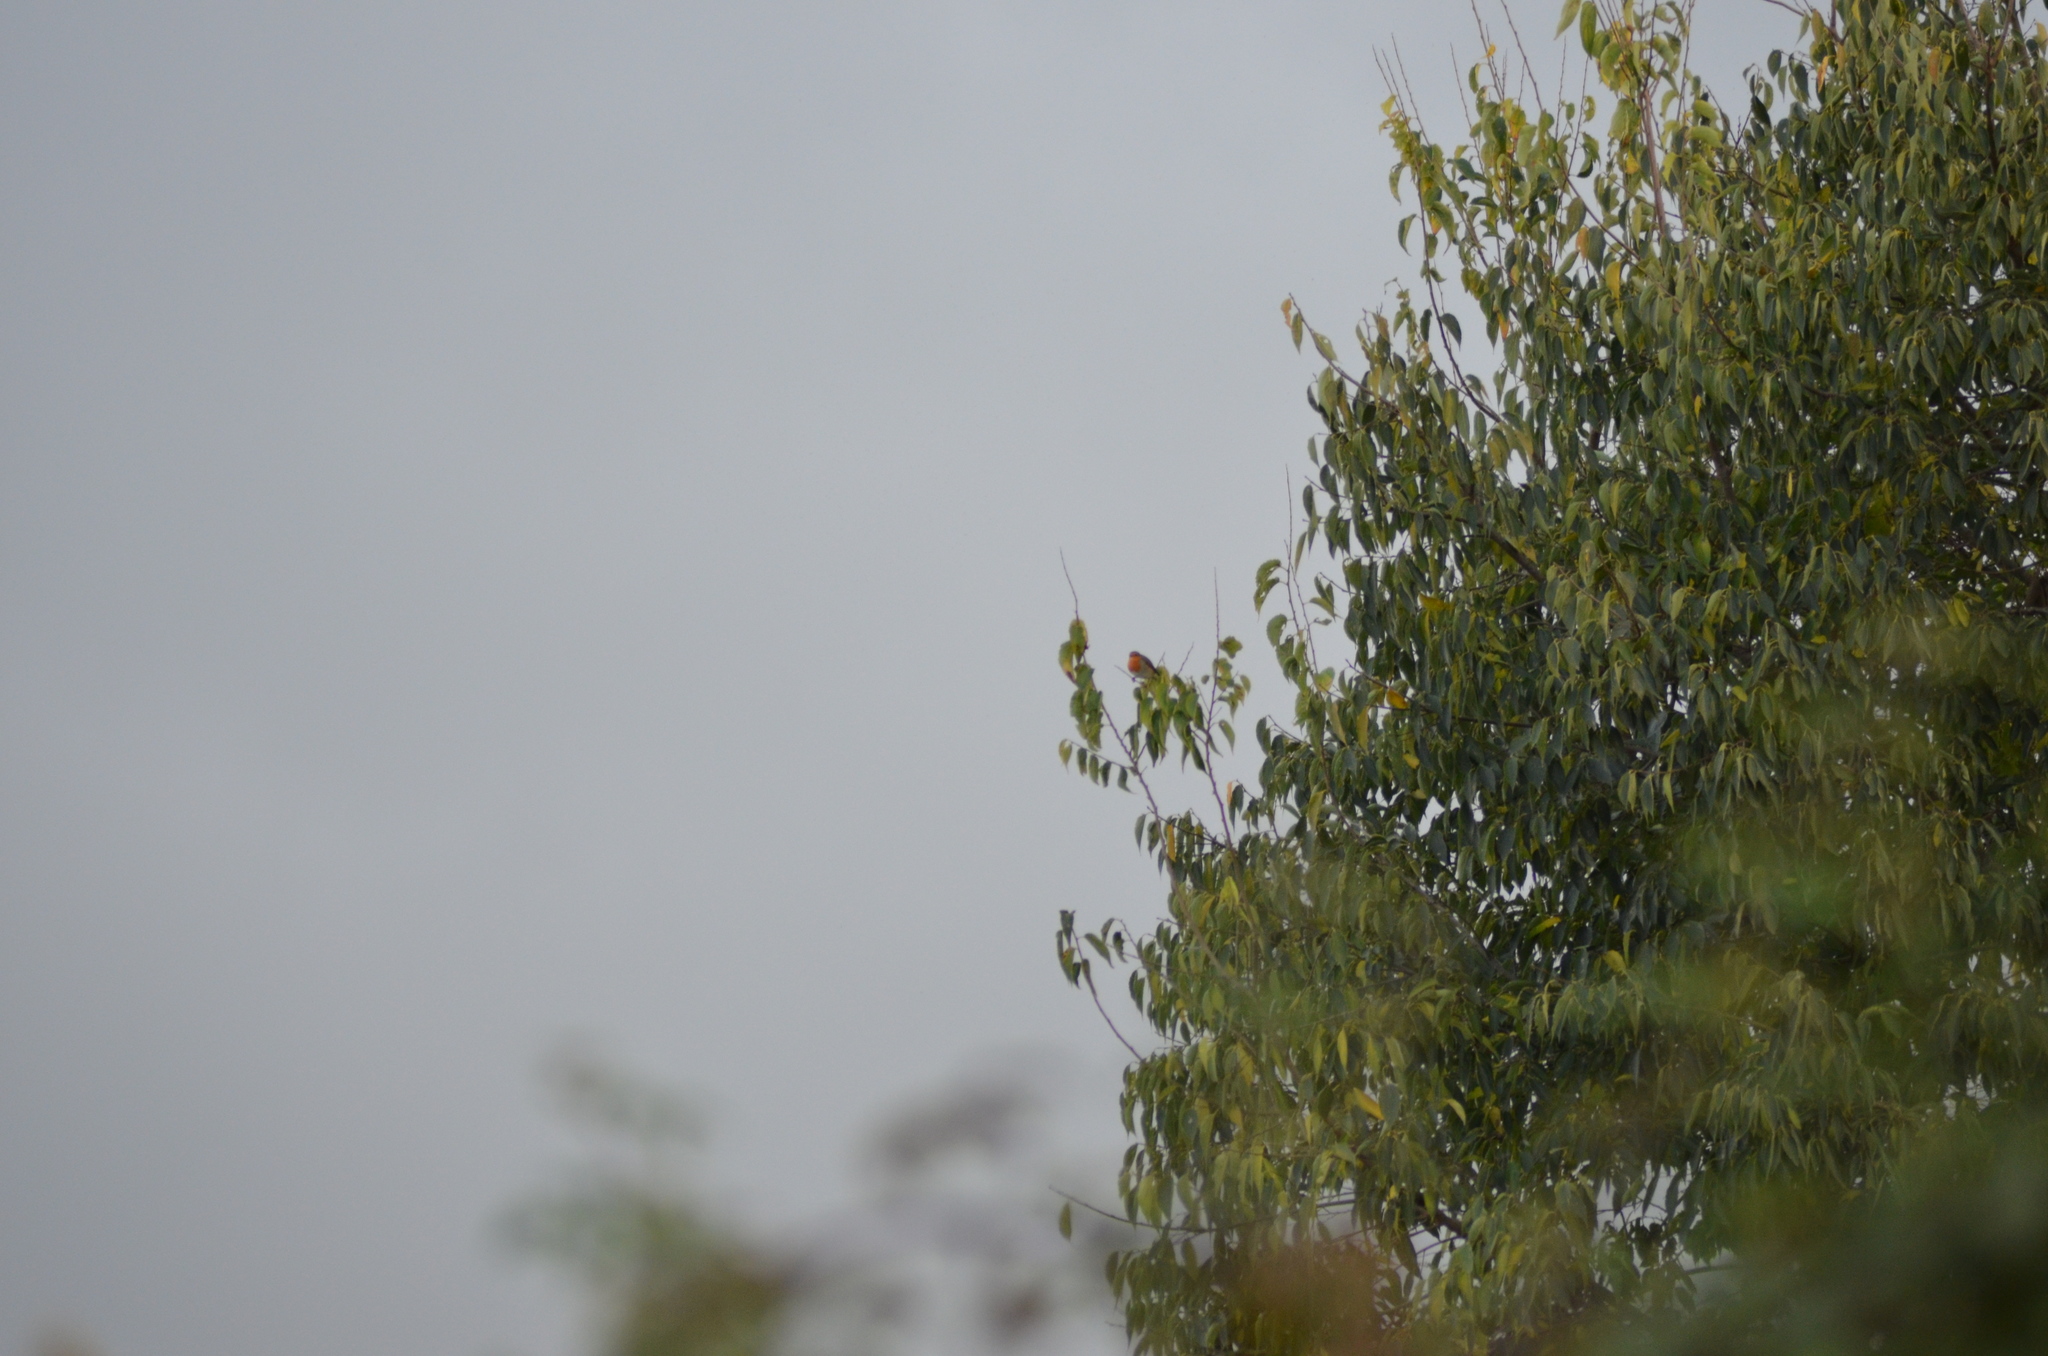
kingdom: Animalia
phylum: Chordata
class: Aves
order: Passeriformes
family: Muscicapidae
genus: Erithacus
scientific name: Erithacus rubecula
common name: European robin
